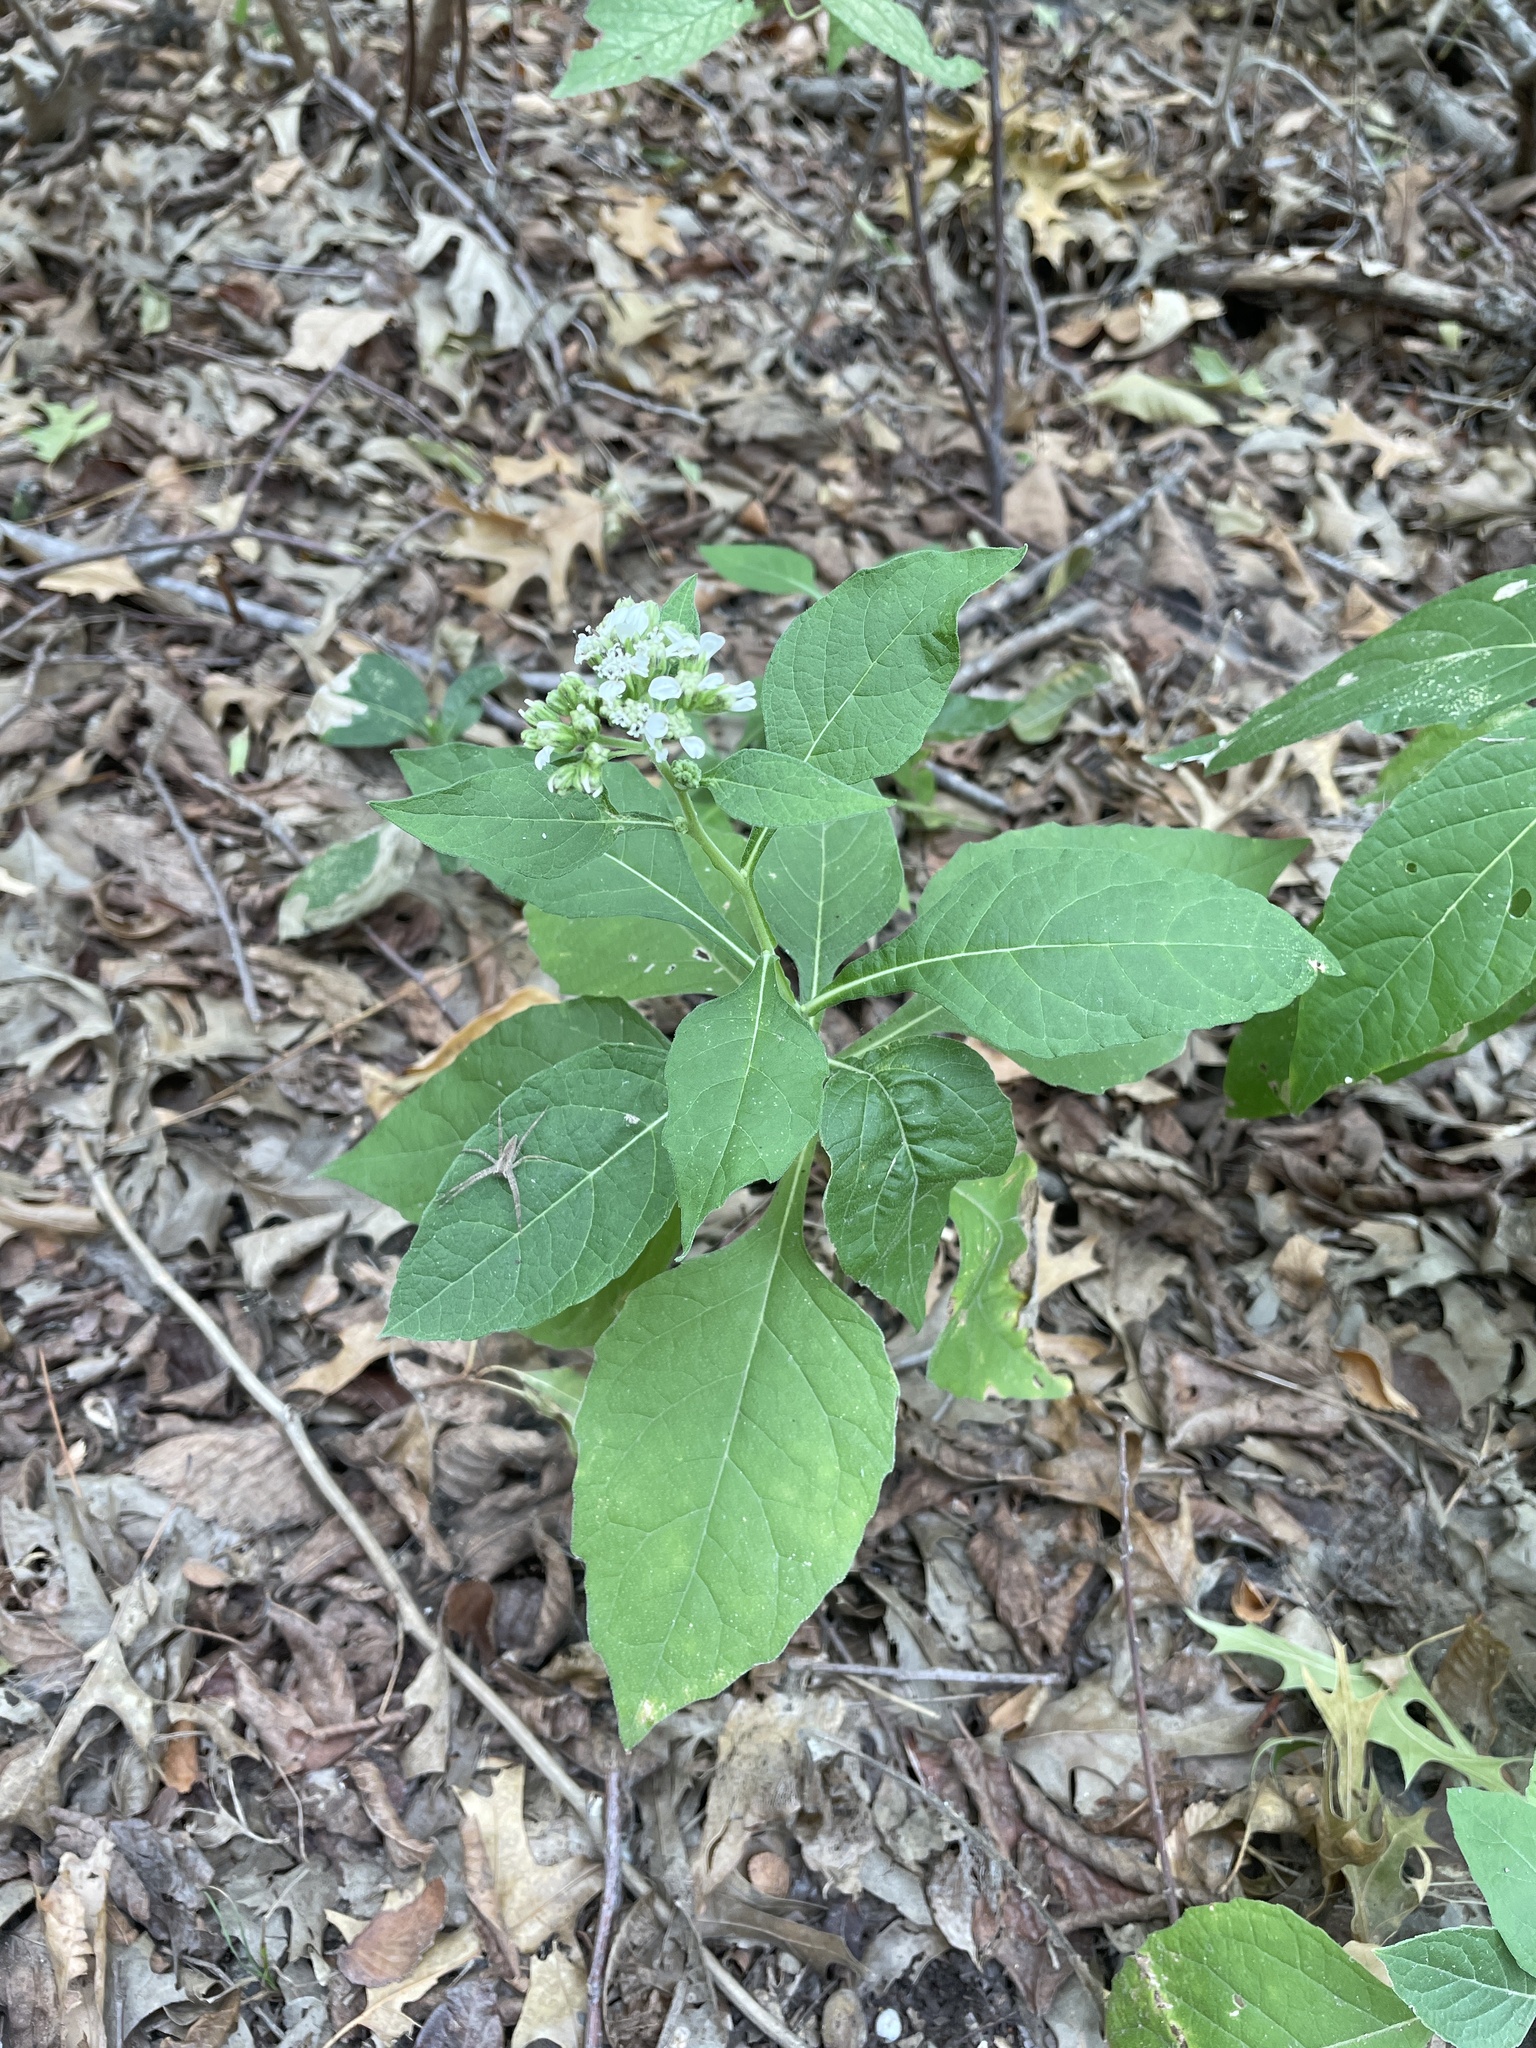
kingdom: Plantae
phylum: Tracheophyta
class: Magnoliopsida
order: Asterales
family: Asteraceae
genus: Verbesina
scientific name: Verbesina virginica
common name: Frostweed
